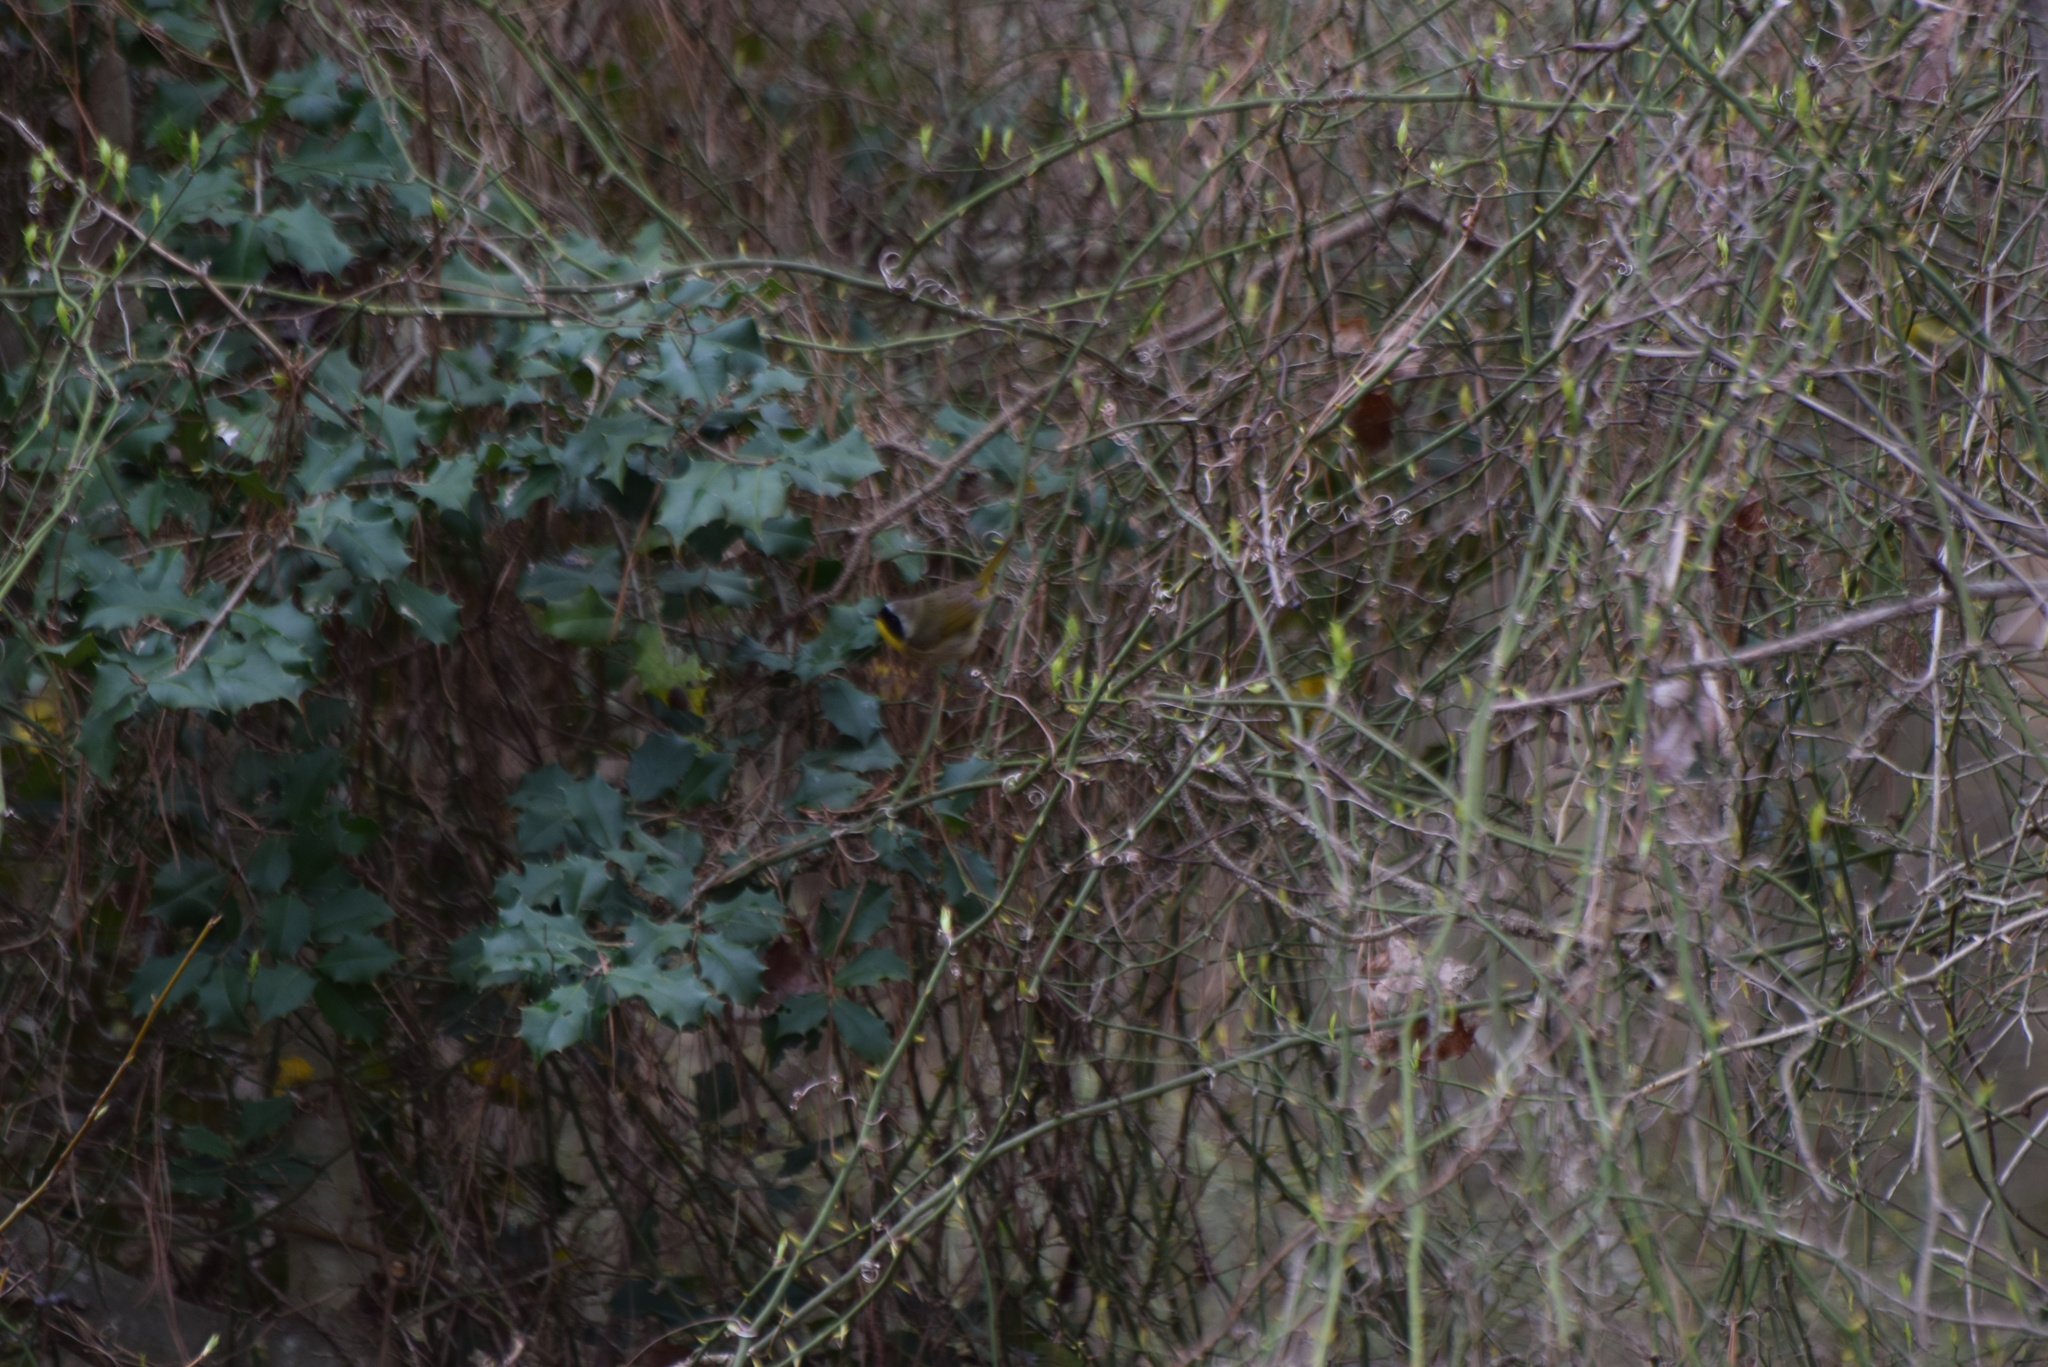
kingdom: Animalia
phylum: Chordata
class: Aves
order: Passeriformes
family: Parulidae
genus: Geothlypis
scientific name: Geothlypis trichas
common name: Common yellowthroat
